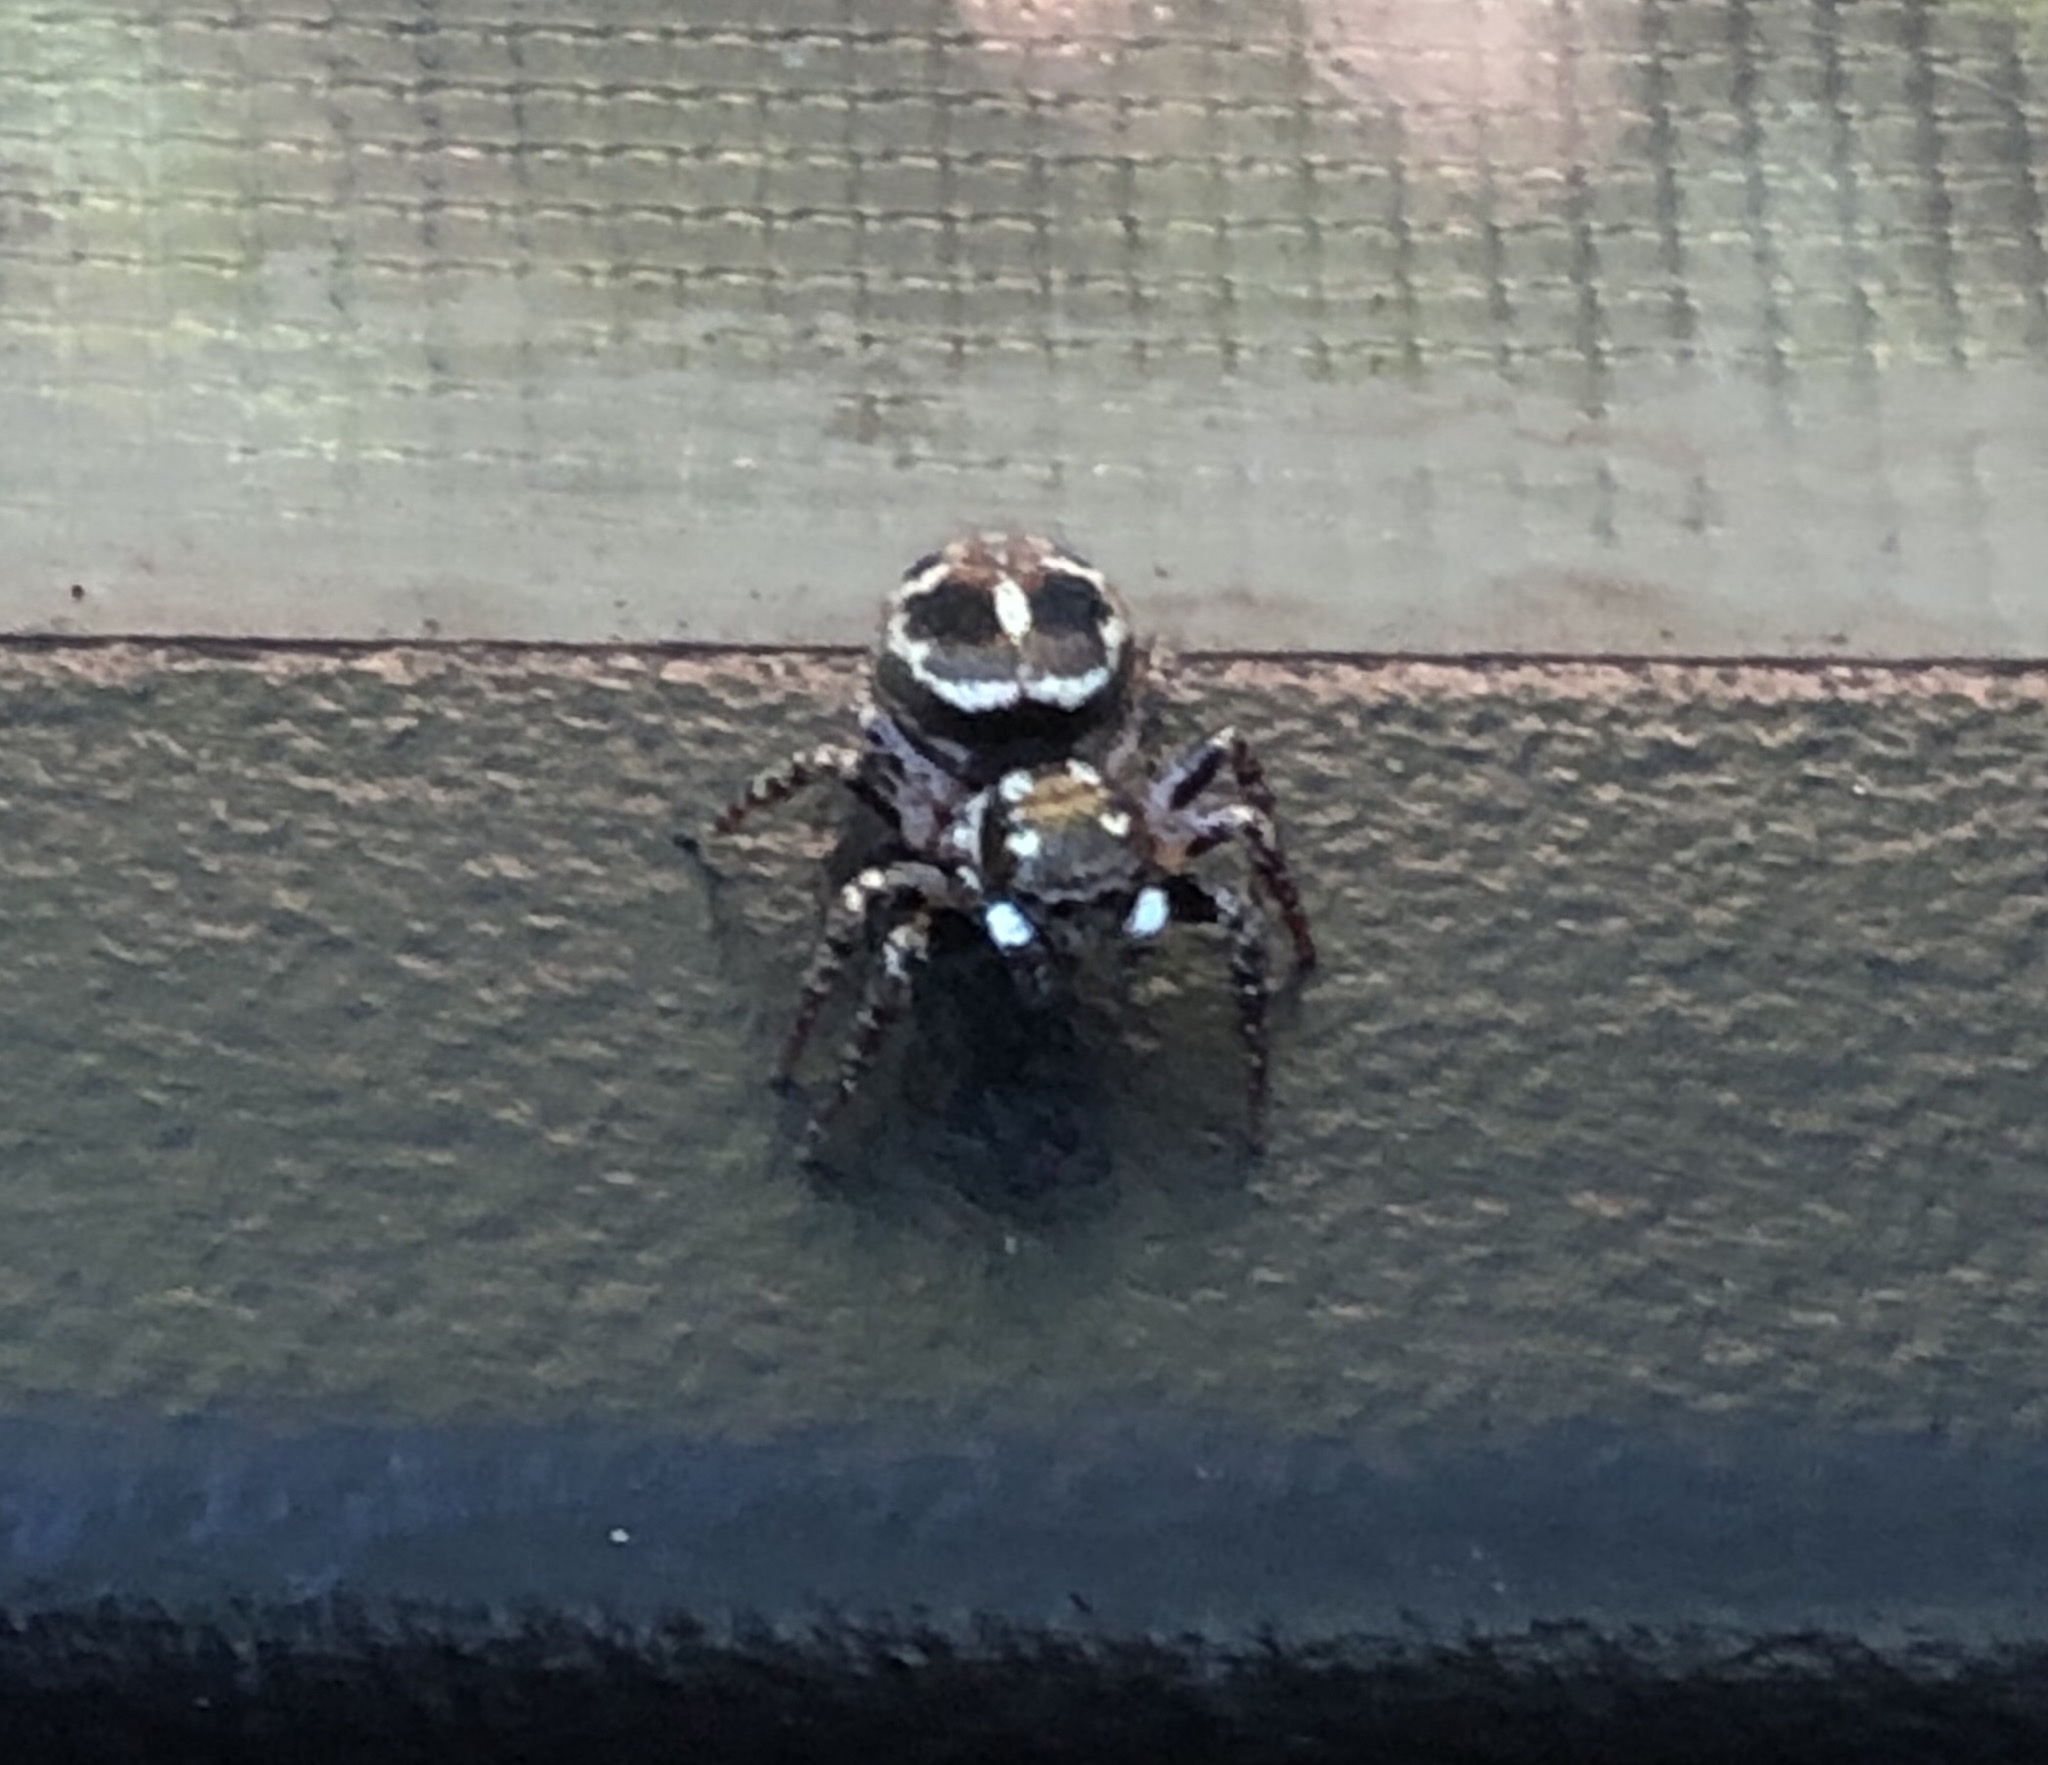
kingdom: Animalia
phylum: Arthropoda
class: Arachnida
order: Araneae
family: Salticidae
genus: Anasaitis
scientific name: Anasaitis canosa
